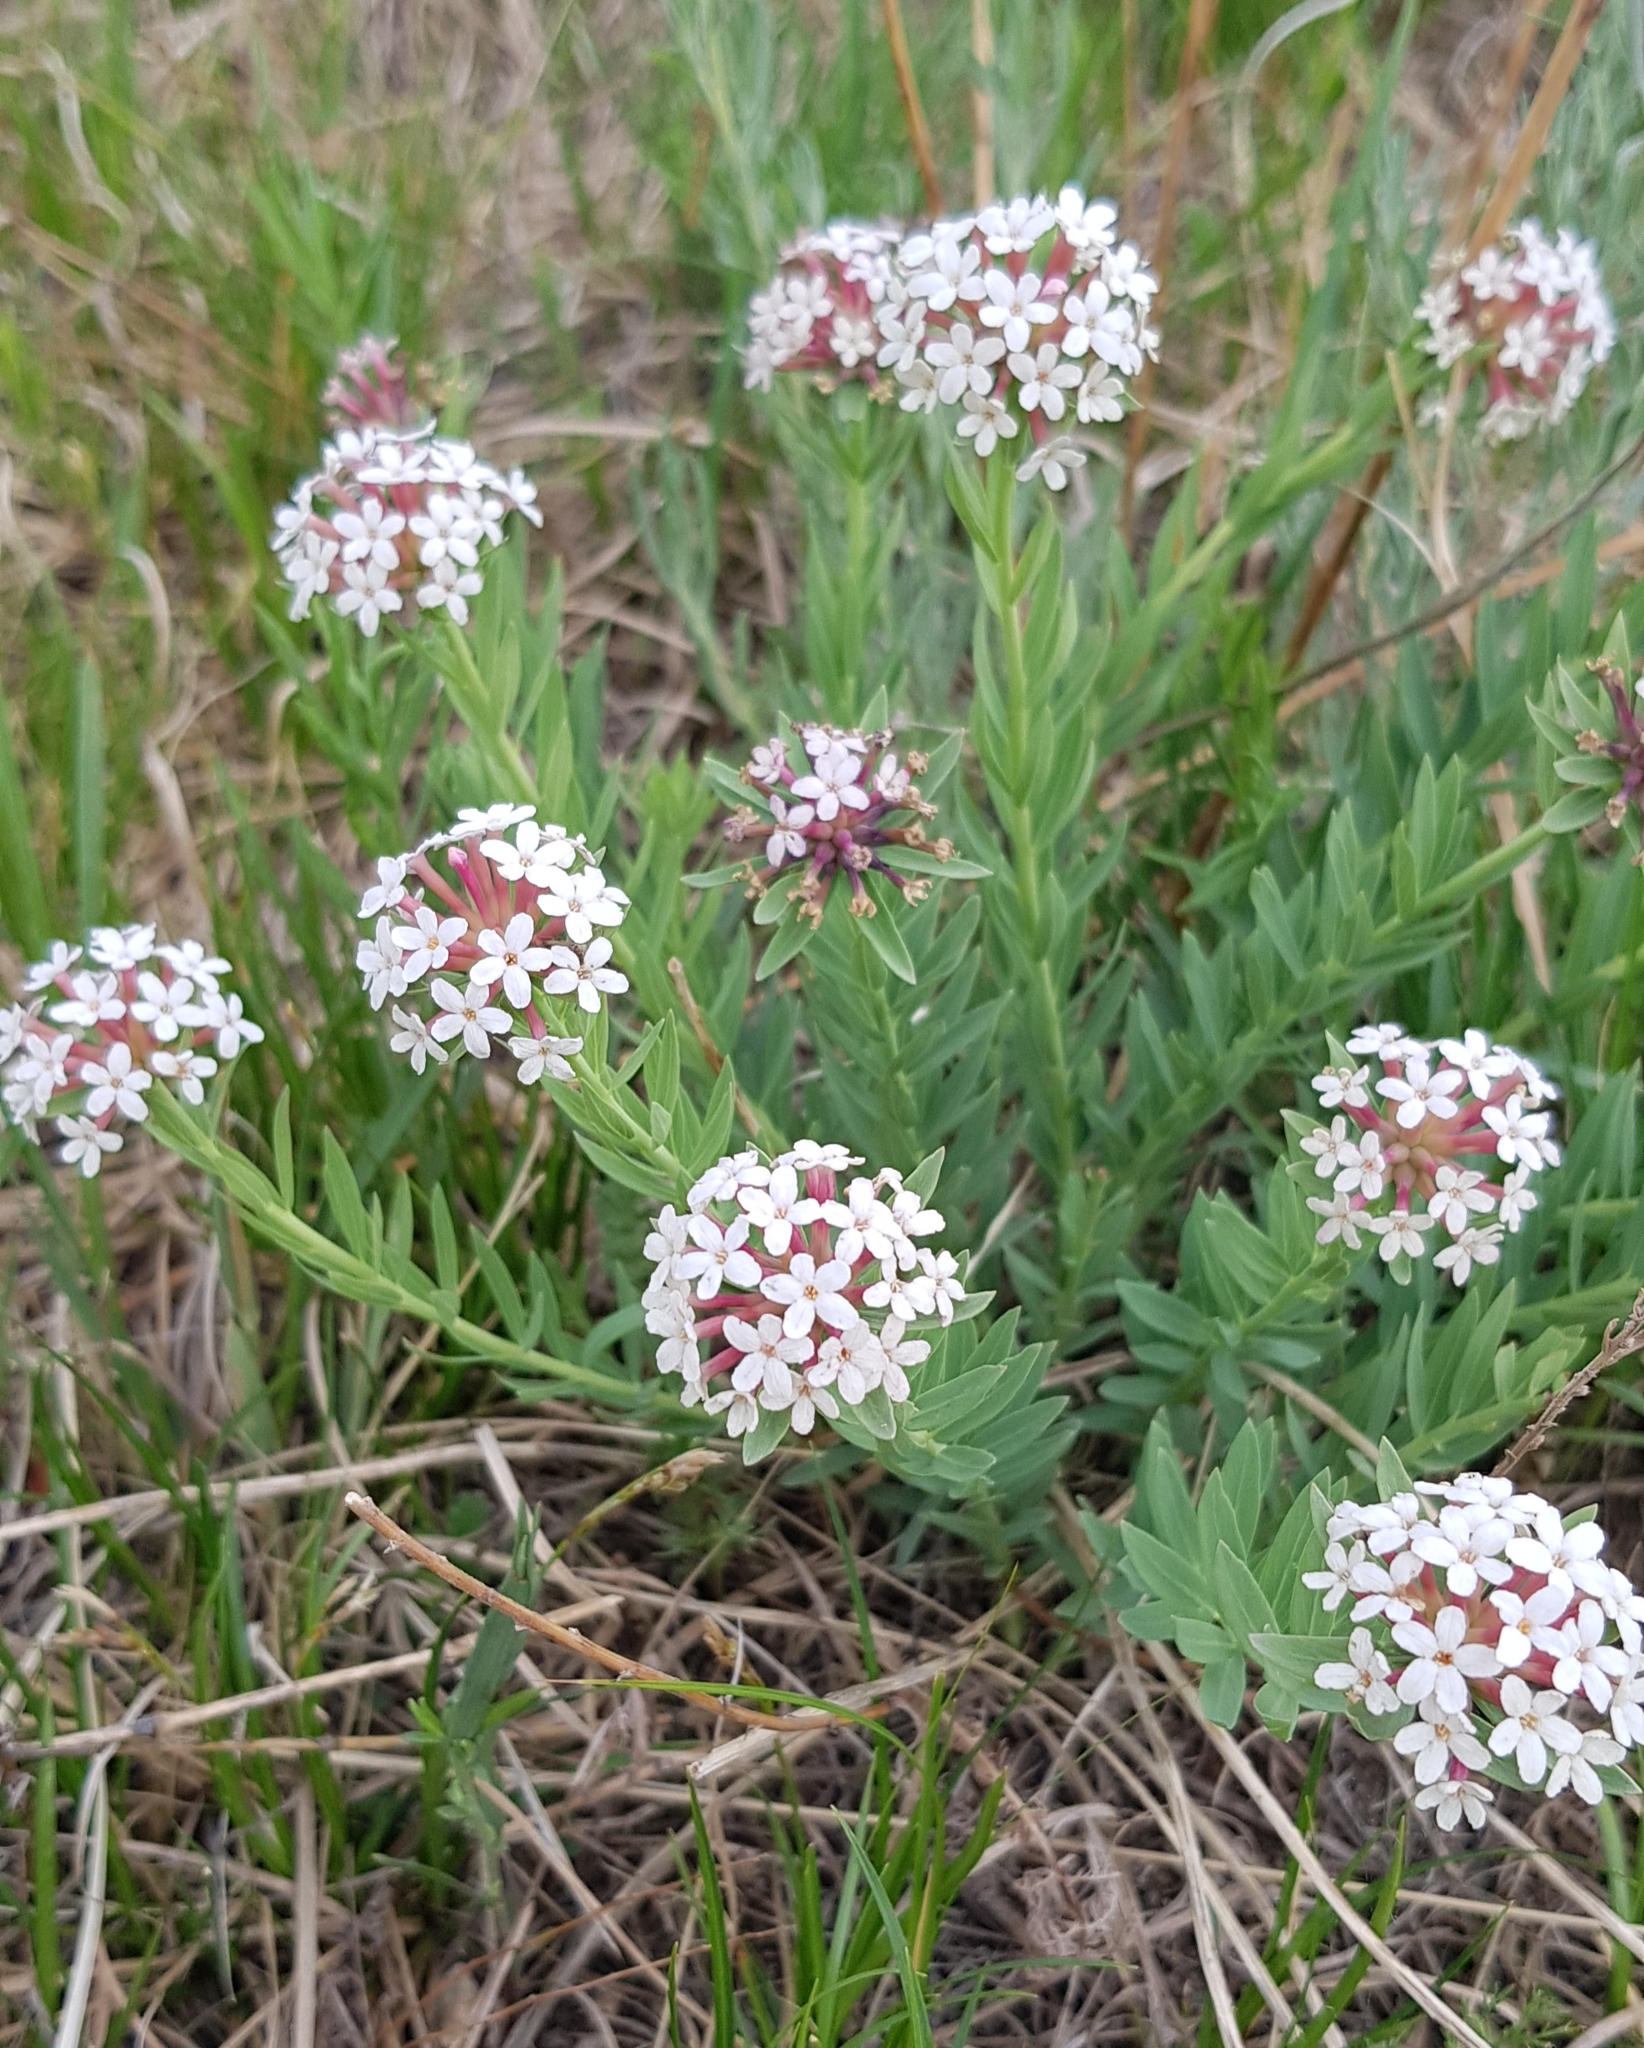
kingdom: Plantae
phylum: Tracheophyta
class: Magnoliopsida
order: Malvales
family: Thymelaeaceae
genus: Stellera
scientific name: Stellera chamaejasme
